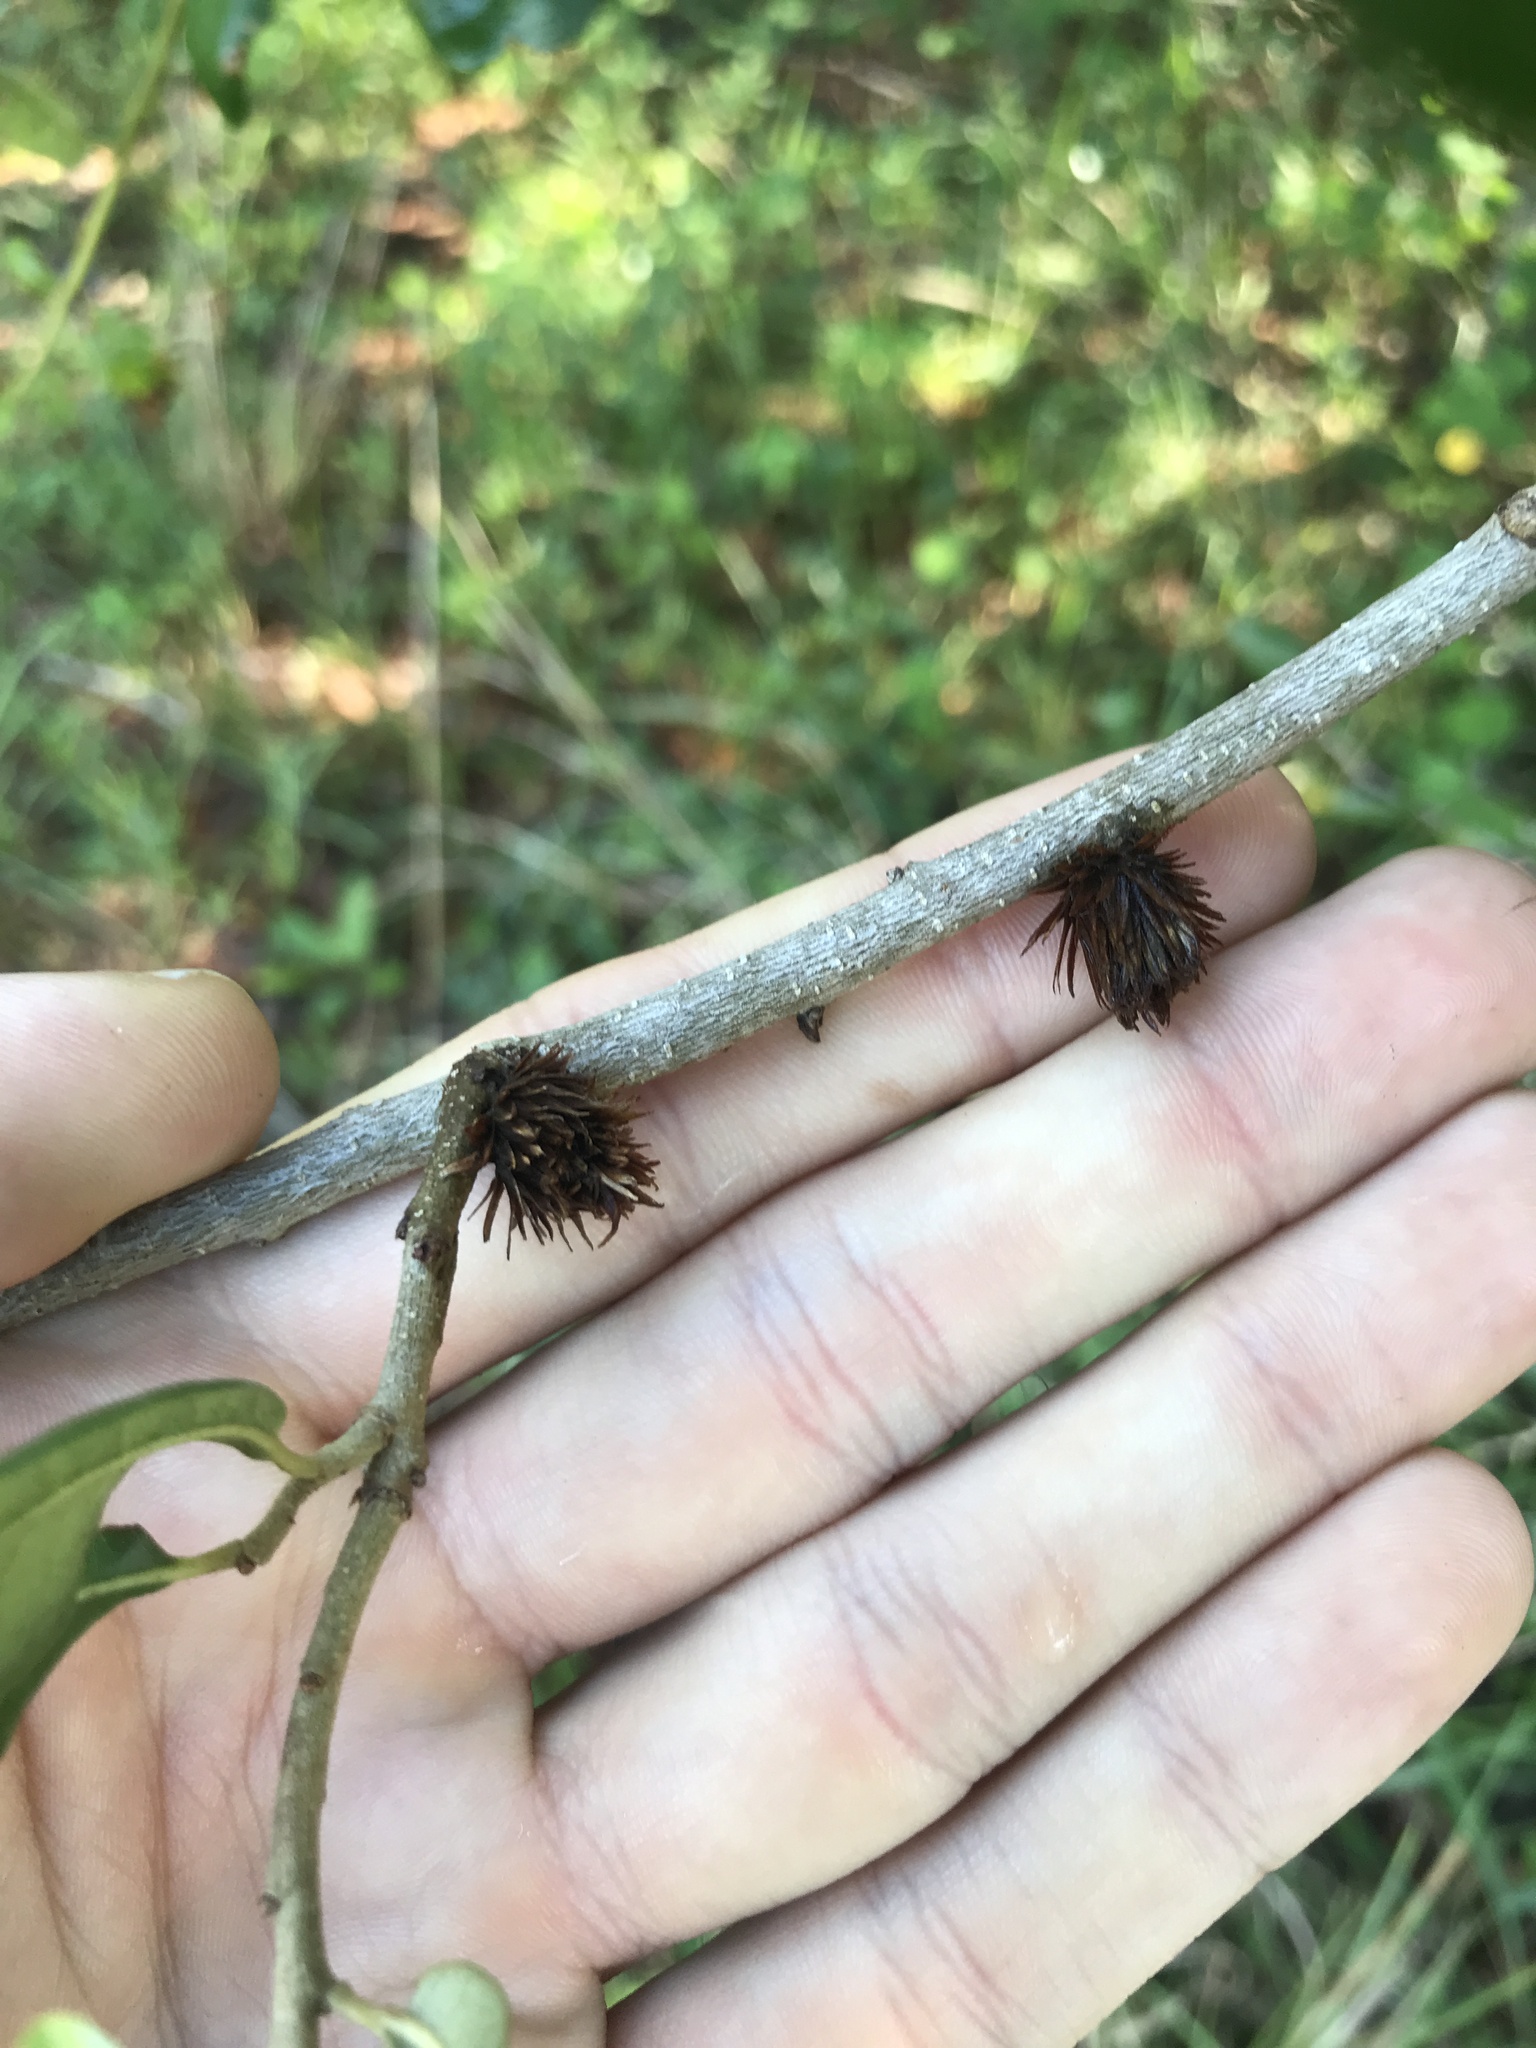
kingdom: Animalia
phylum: Arthropoda
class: Insecta
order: Hymenoptera
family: Cynipidae
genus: Andricus
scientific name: Andricus quercusfoliatus
